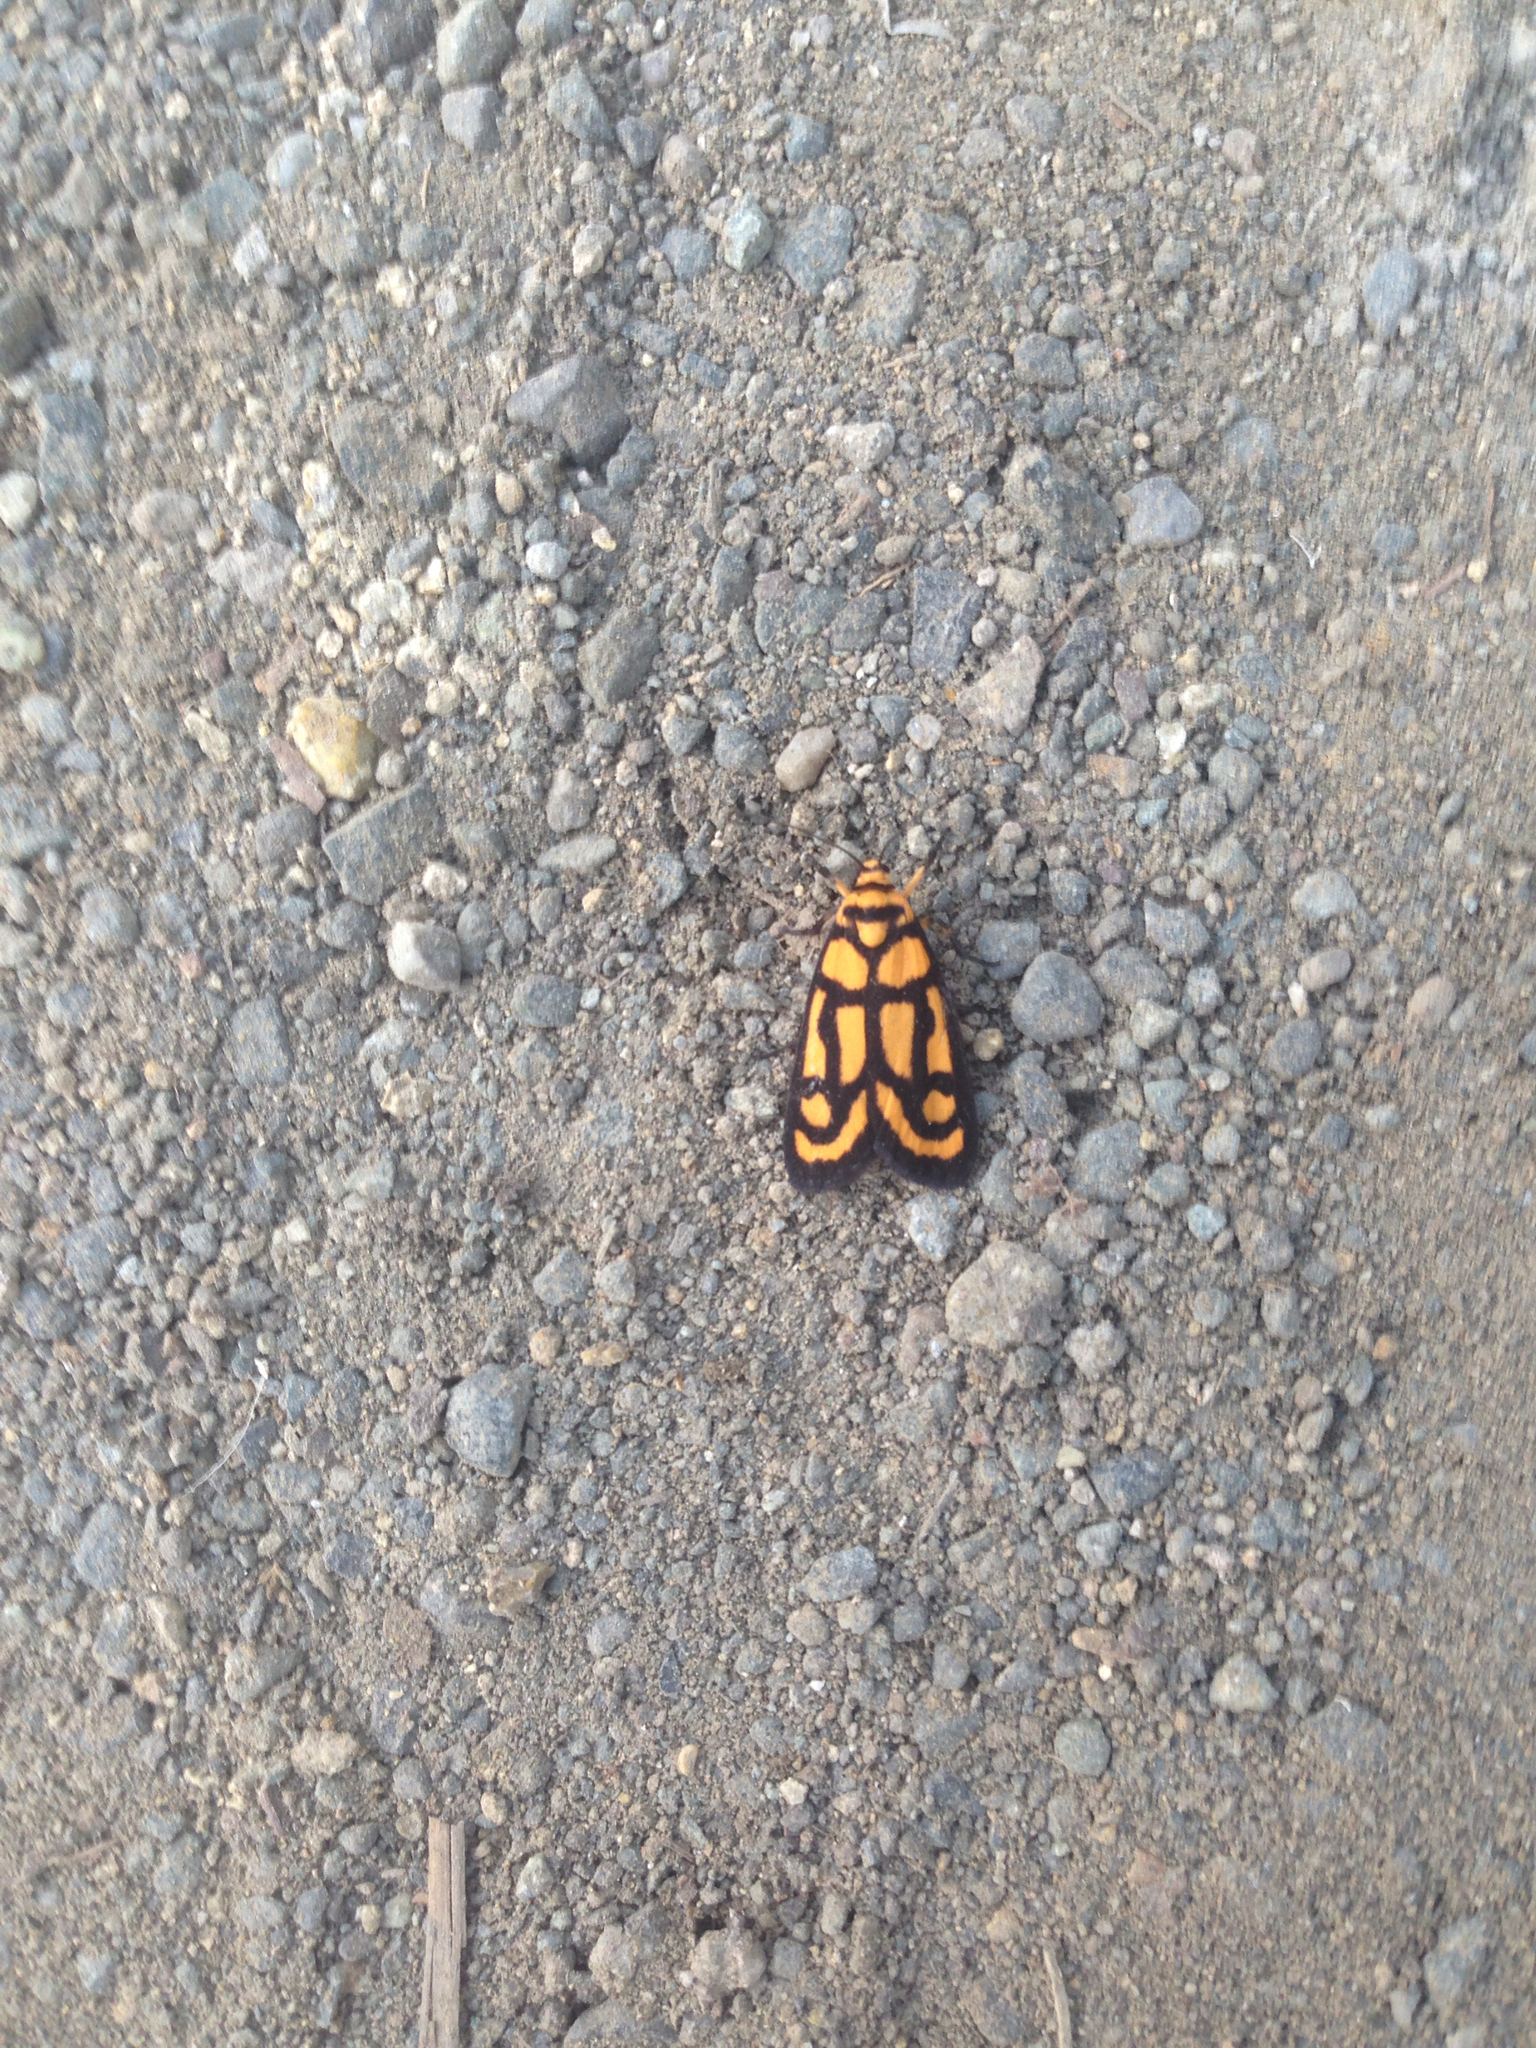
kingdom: Animalia
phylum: Arthropoda
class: Insecta
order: Lepidoptera
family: Erebidae
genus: Xanthetis
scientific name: Xanthetis luzonica
